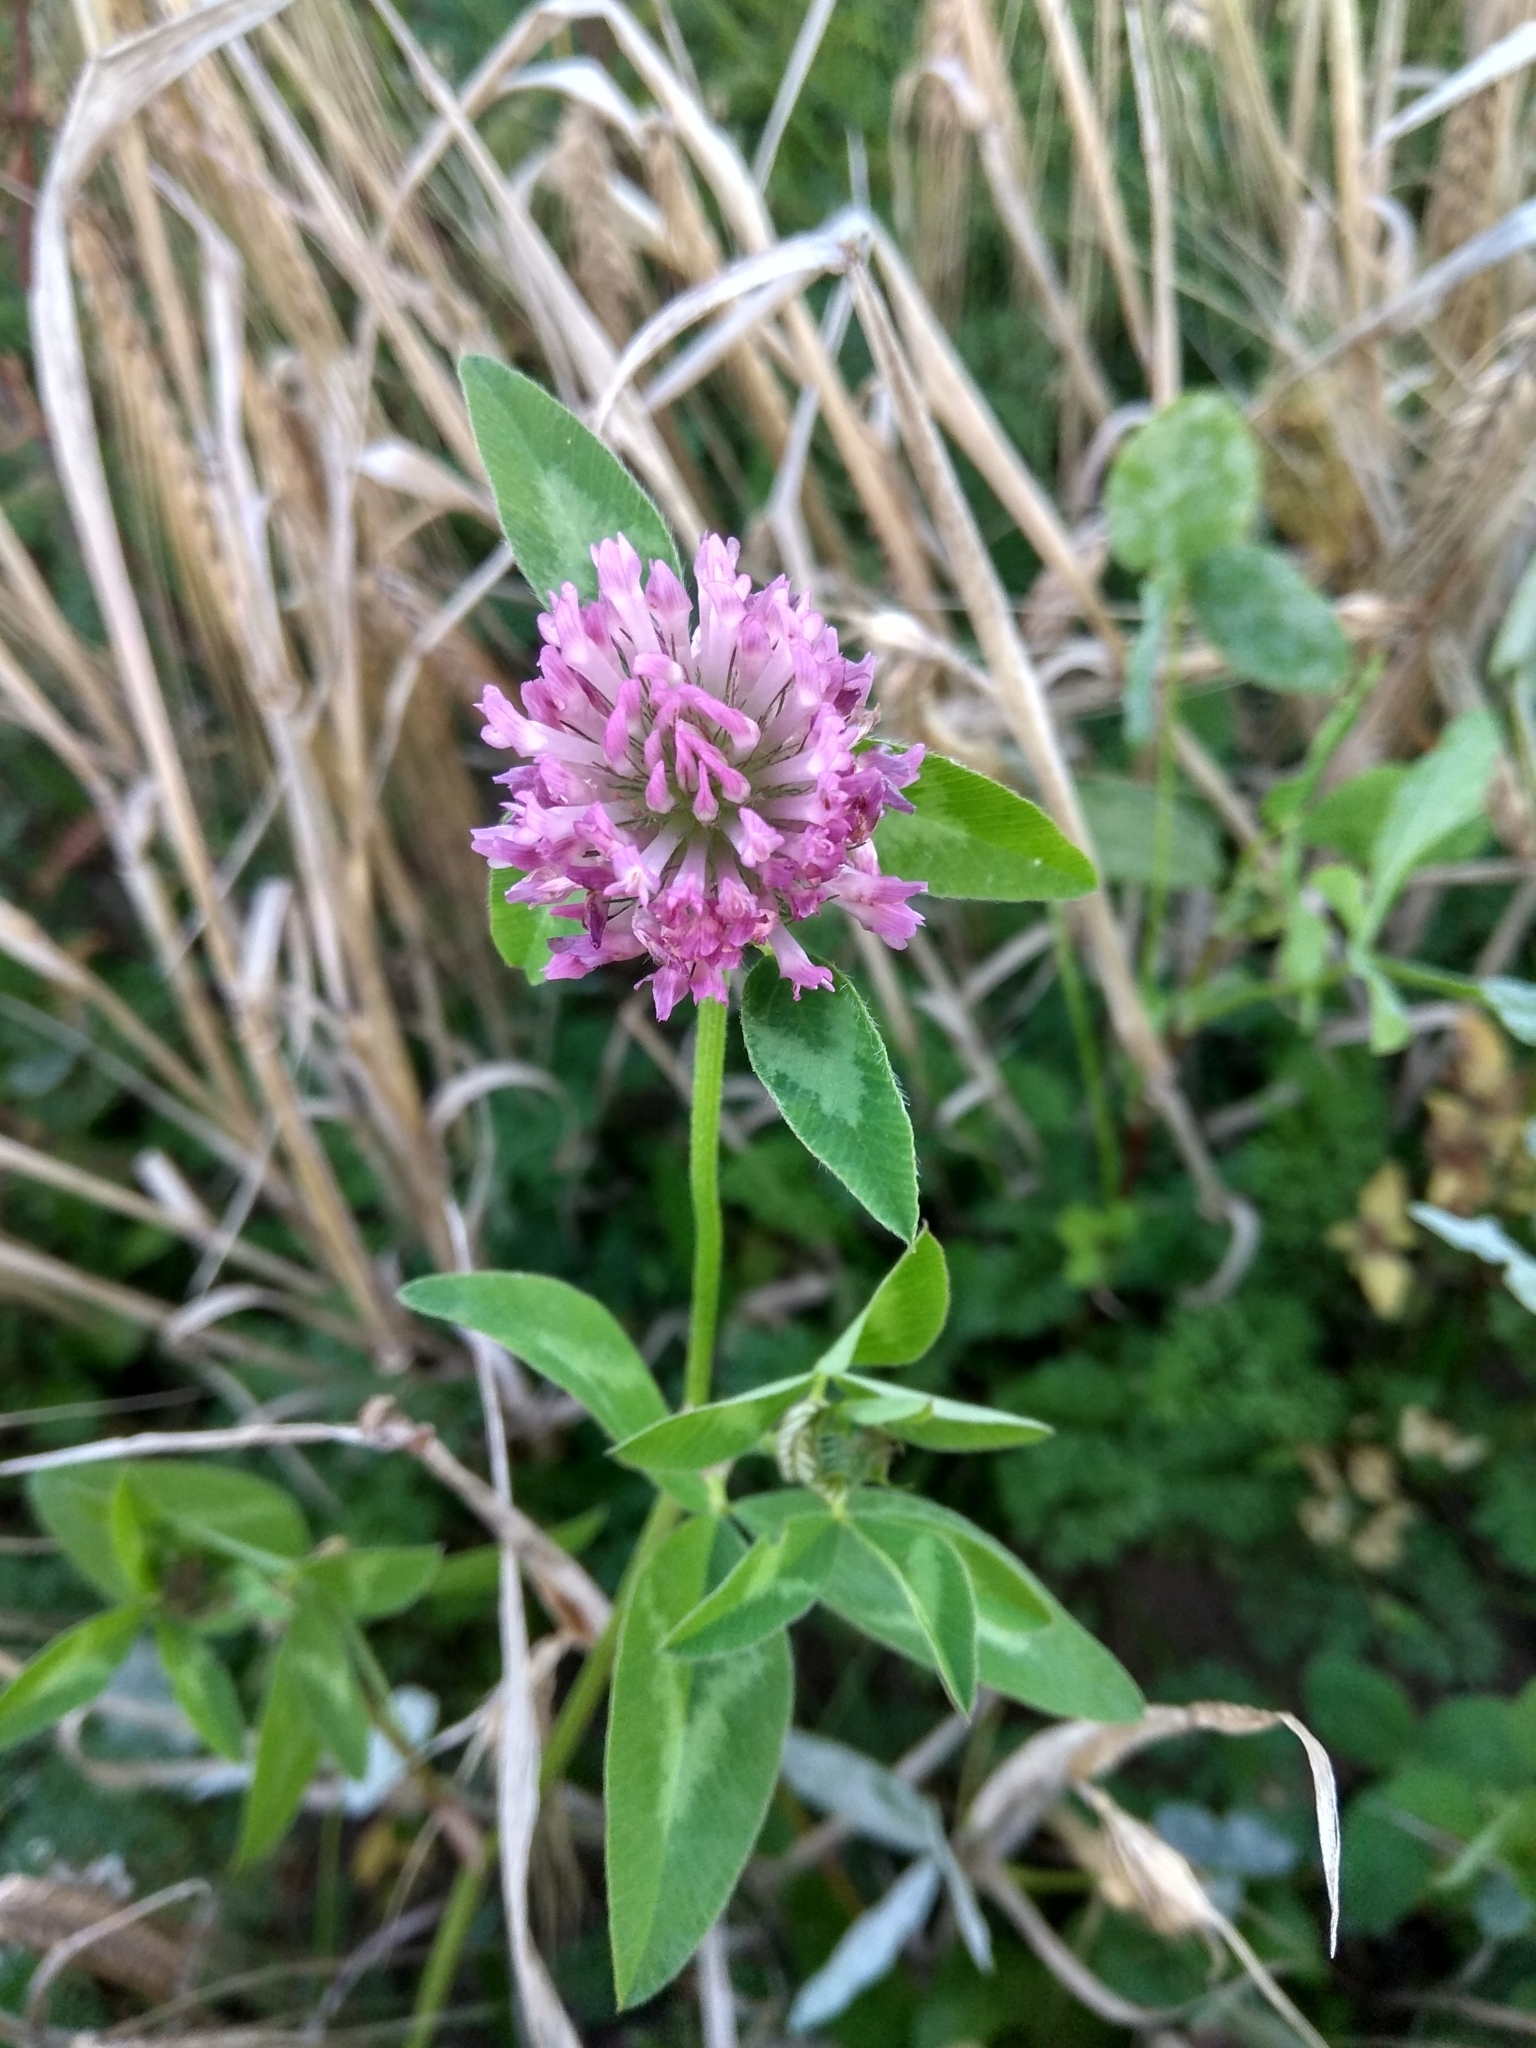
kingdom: Plantae
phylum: Tracheophyta
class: Magnoliopsida
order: Fabales
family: Fabaceae
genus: Trifolium
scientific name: Trifolium pratense
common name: Red clover
